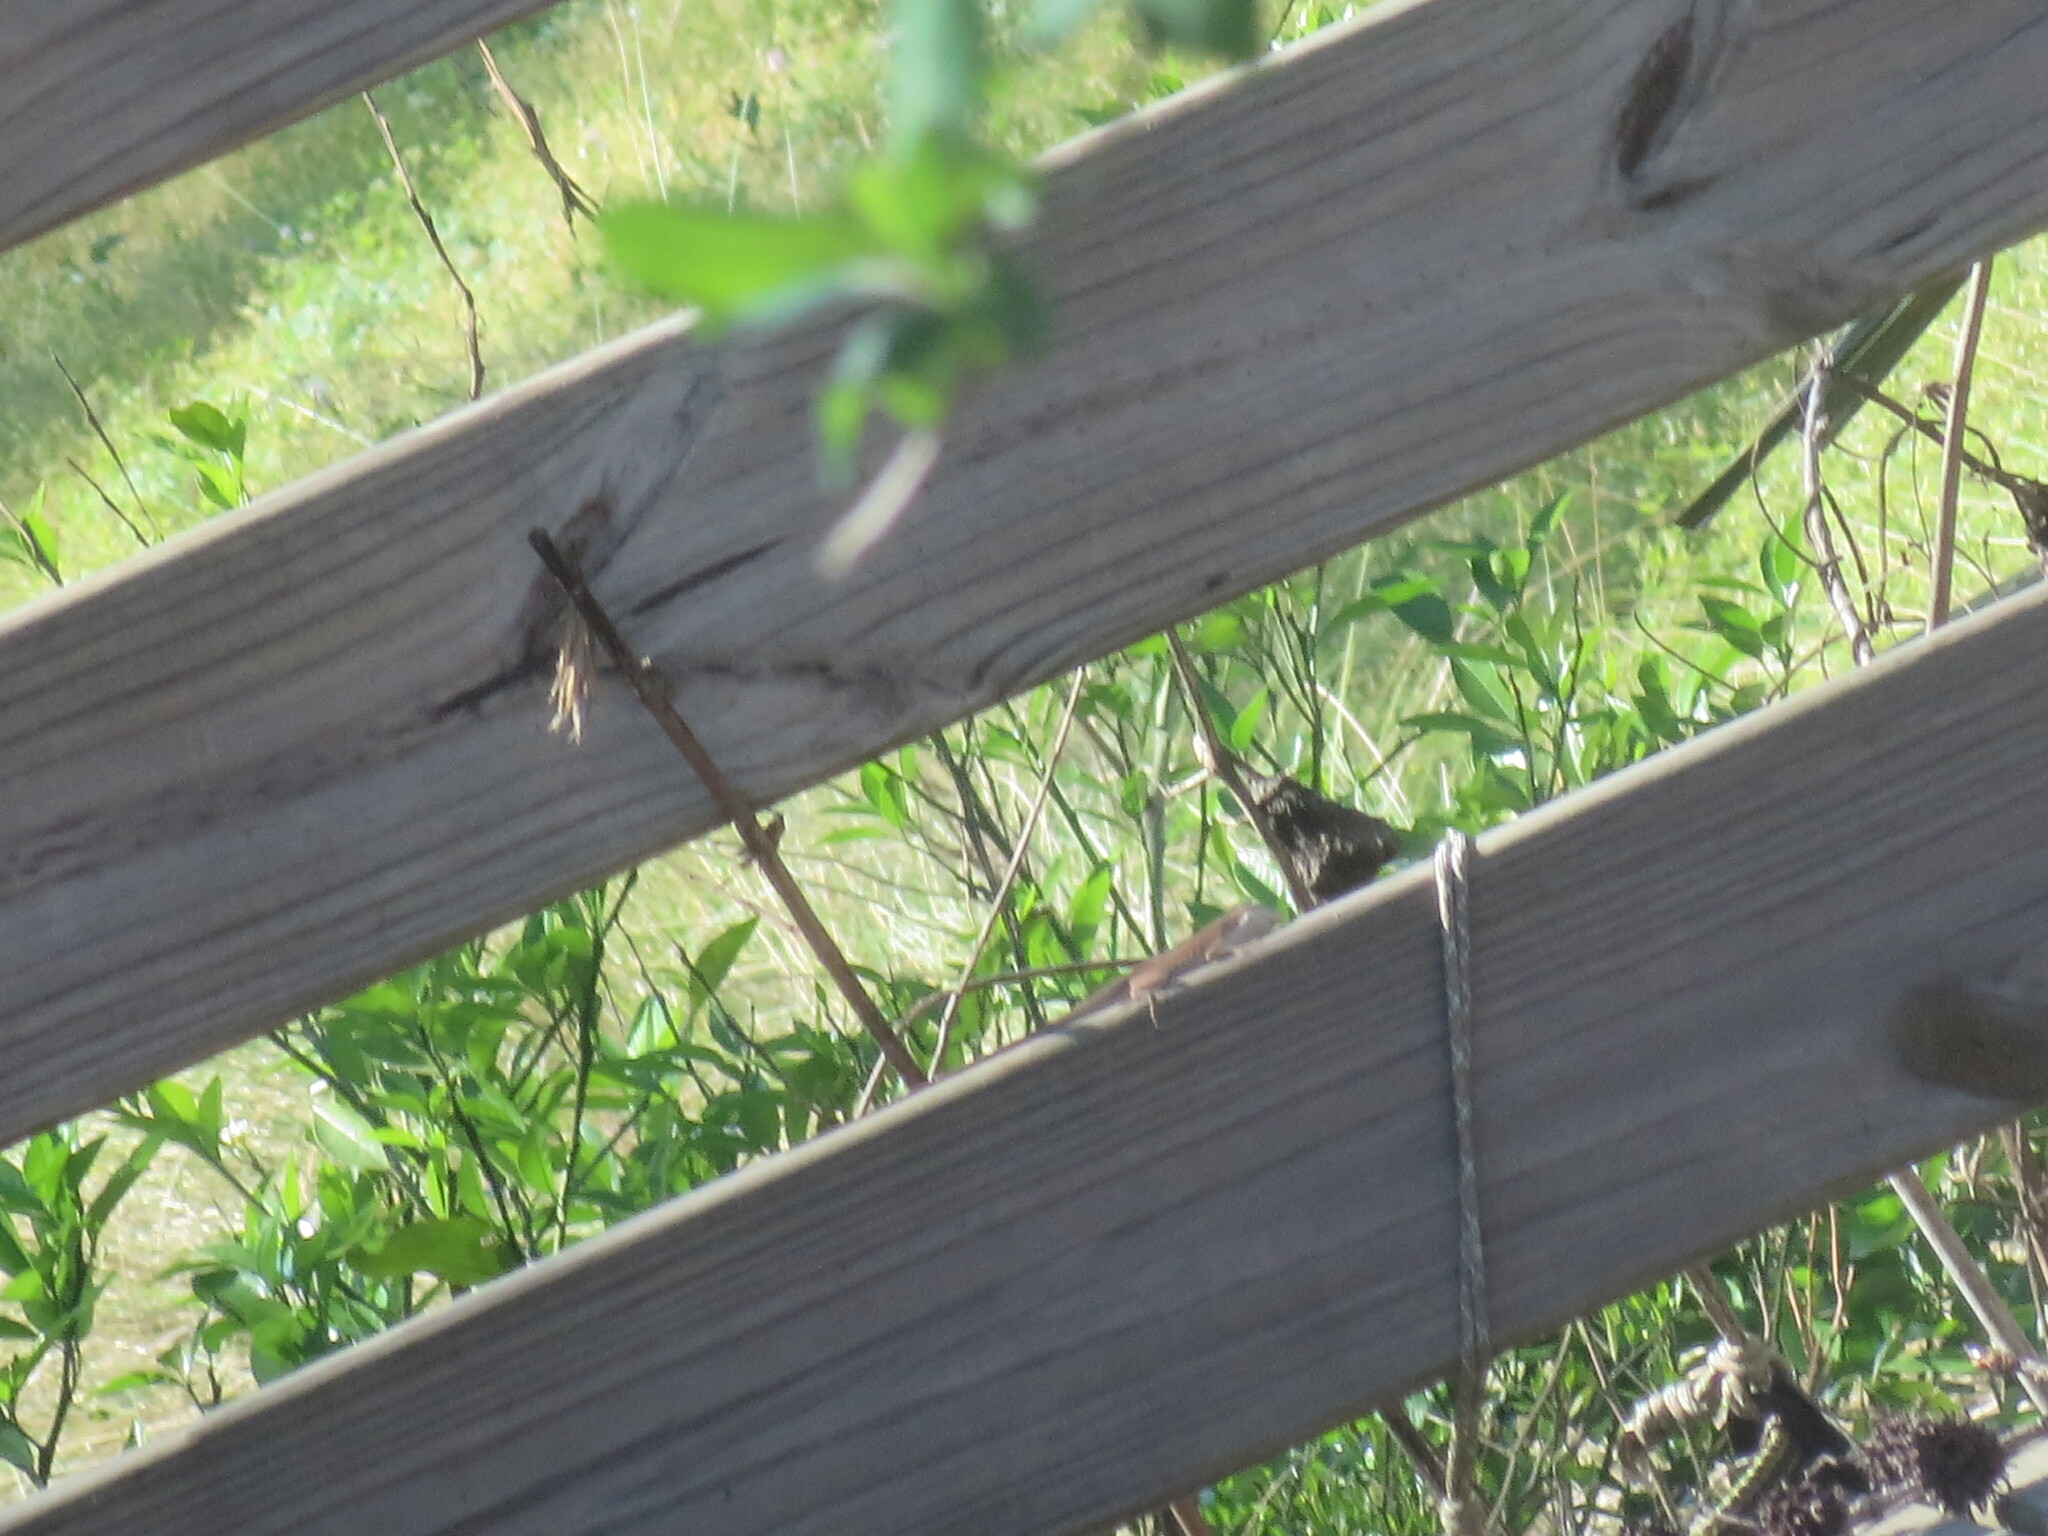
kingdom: Animalia
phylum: Chordata
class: Squamata
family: Dactyloidae
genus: Anolis
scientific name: Anolis carolinensis
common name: Green anole
